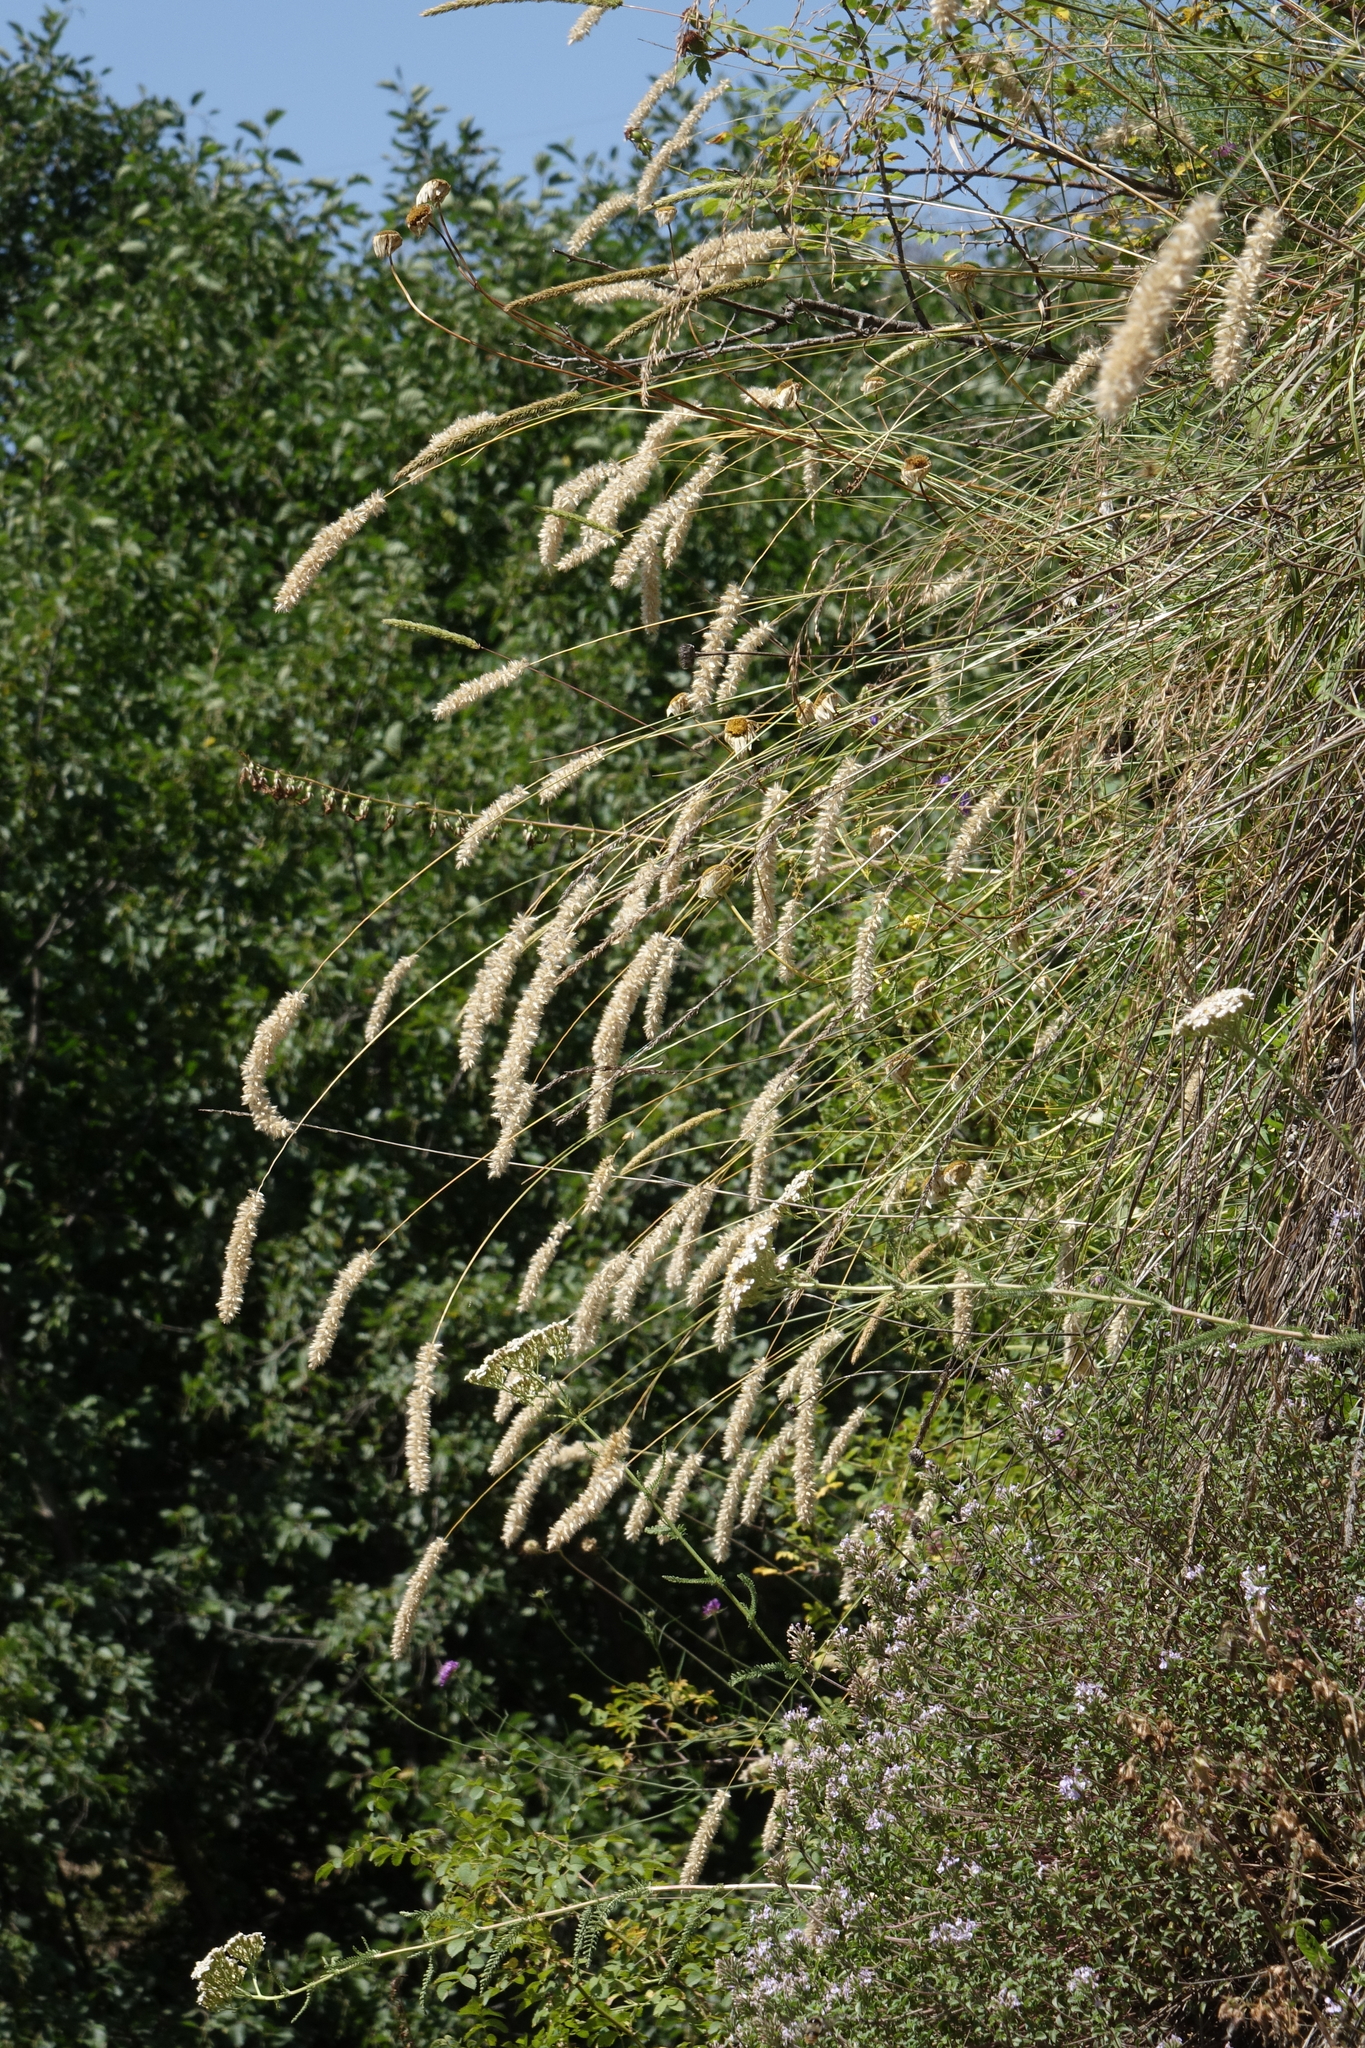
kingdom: Plantae
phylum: Tracheophyta
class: Liliopsida
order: Poales
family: Poaceae
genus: Melica
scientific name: Melica transsilvanica
